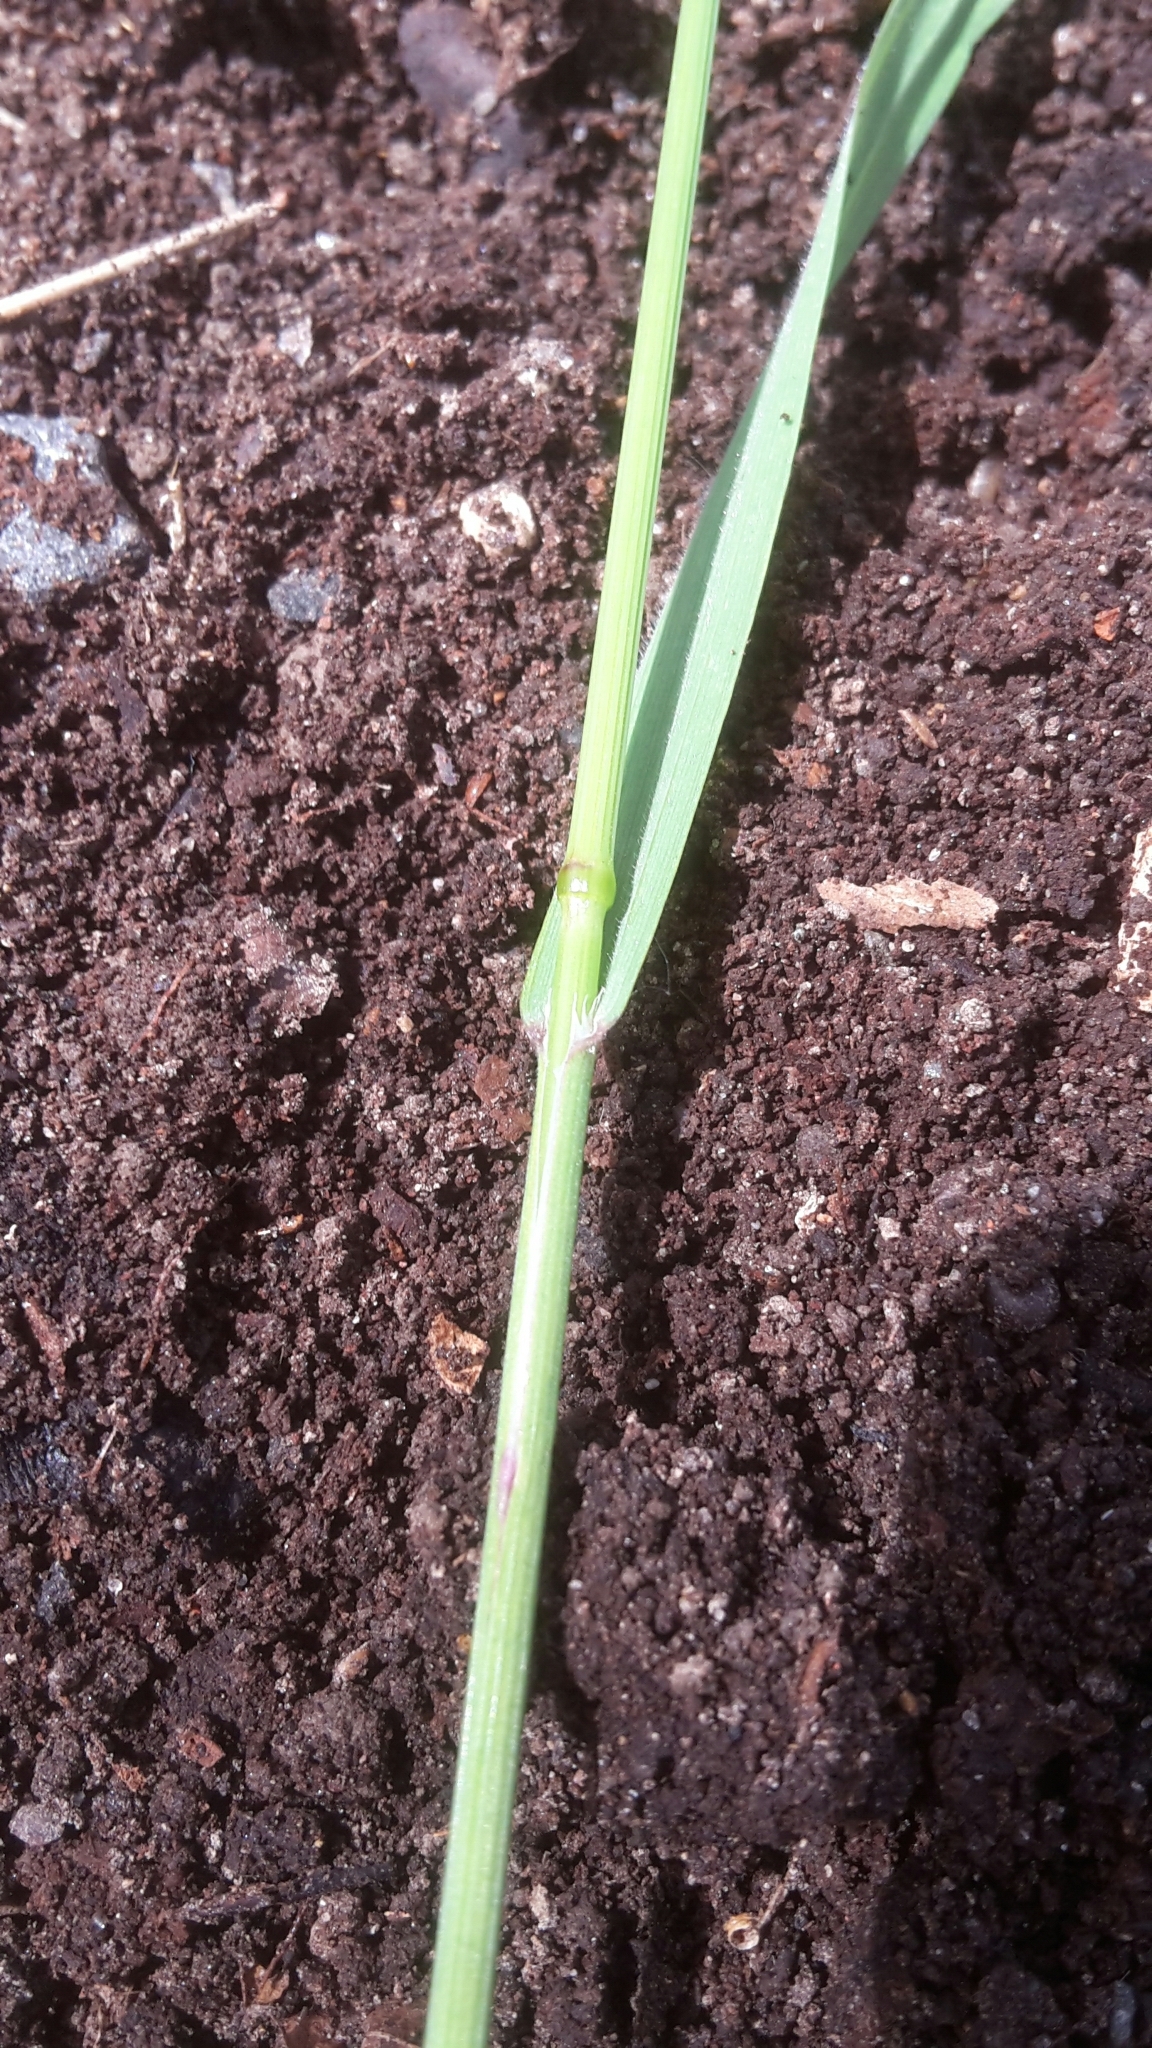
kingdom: Plantae
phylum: Tracheophyta
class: Liliopsida
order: Poales
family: Poaceae
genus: Bromus
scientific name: Bromus sterilis
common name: Poverty brome
